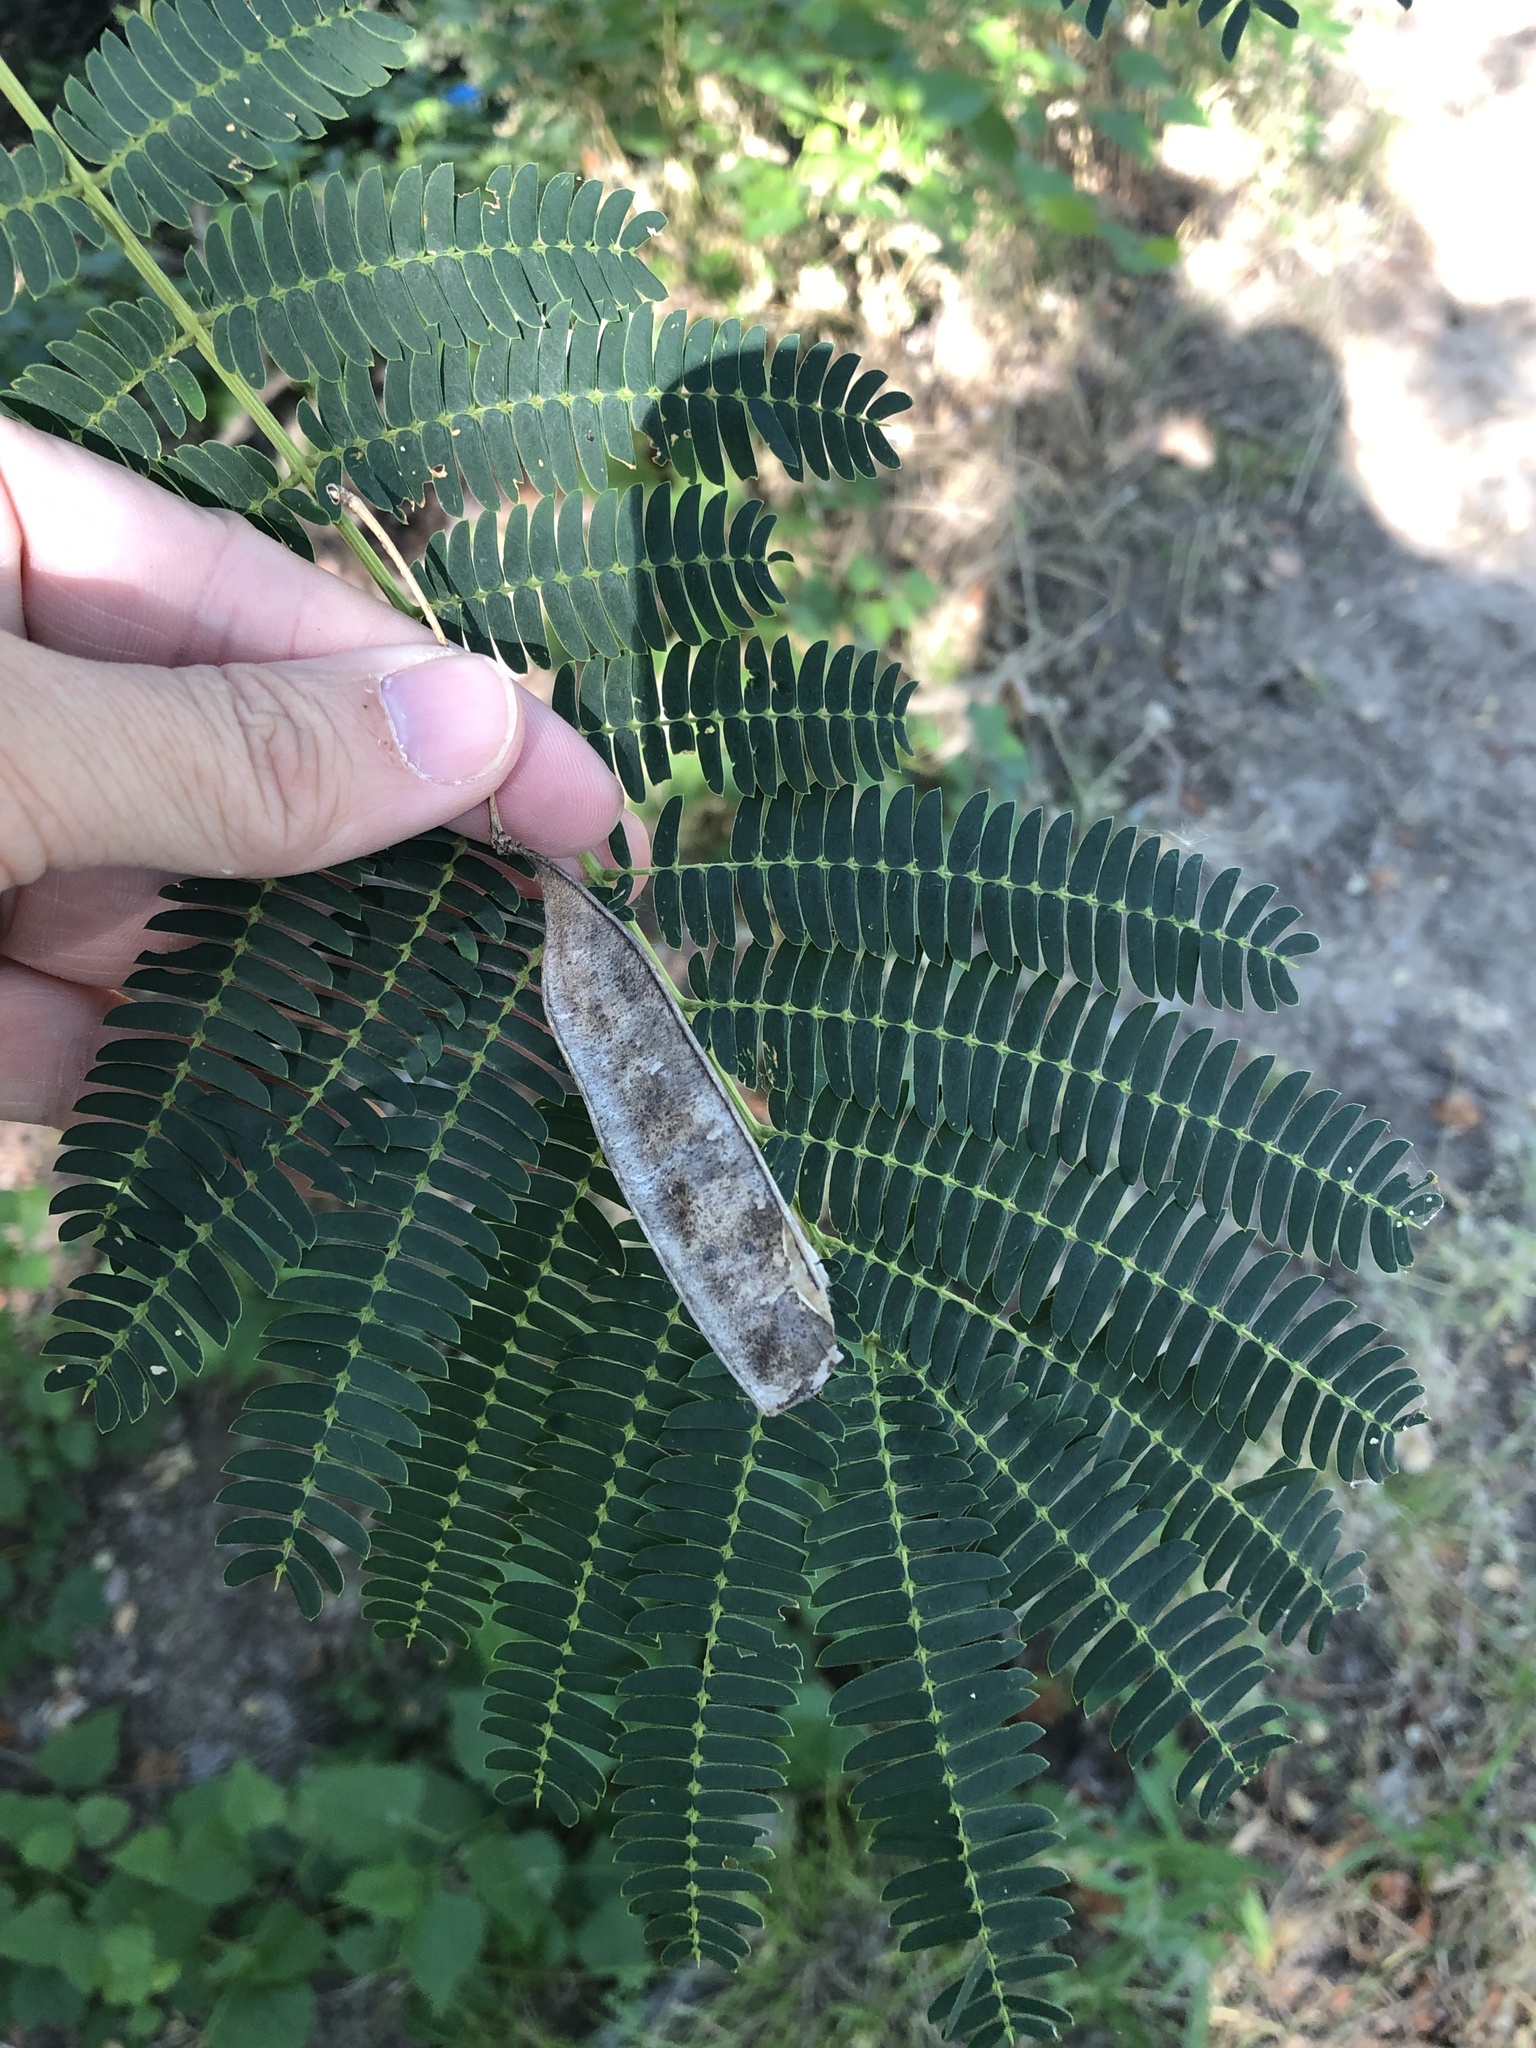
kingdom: Plantae
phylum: Tracheophyta
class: Magnoliopsida
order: Fabales
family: Fabaceae
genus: Albizia
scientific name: Albizia julibrissin
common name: Silktree
